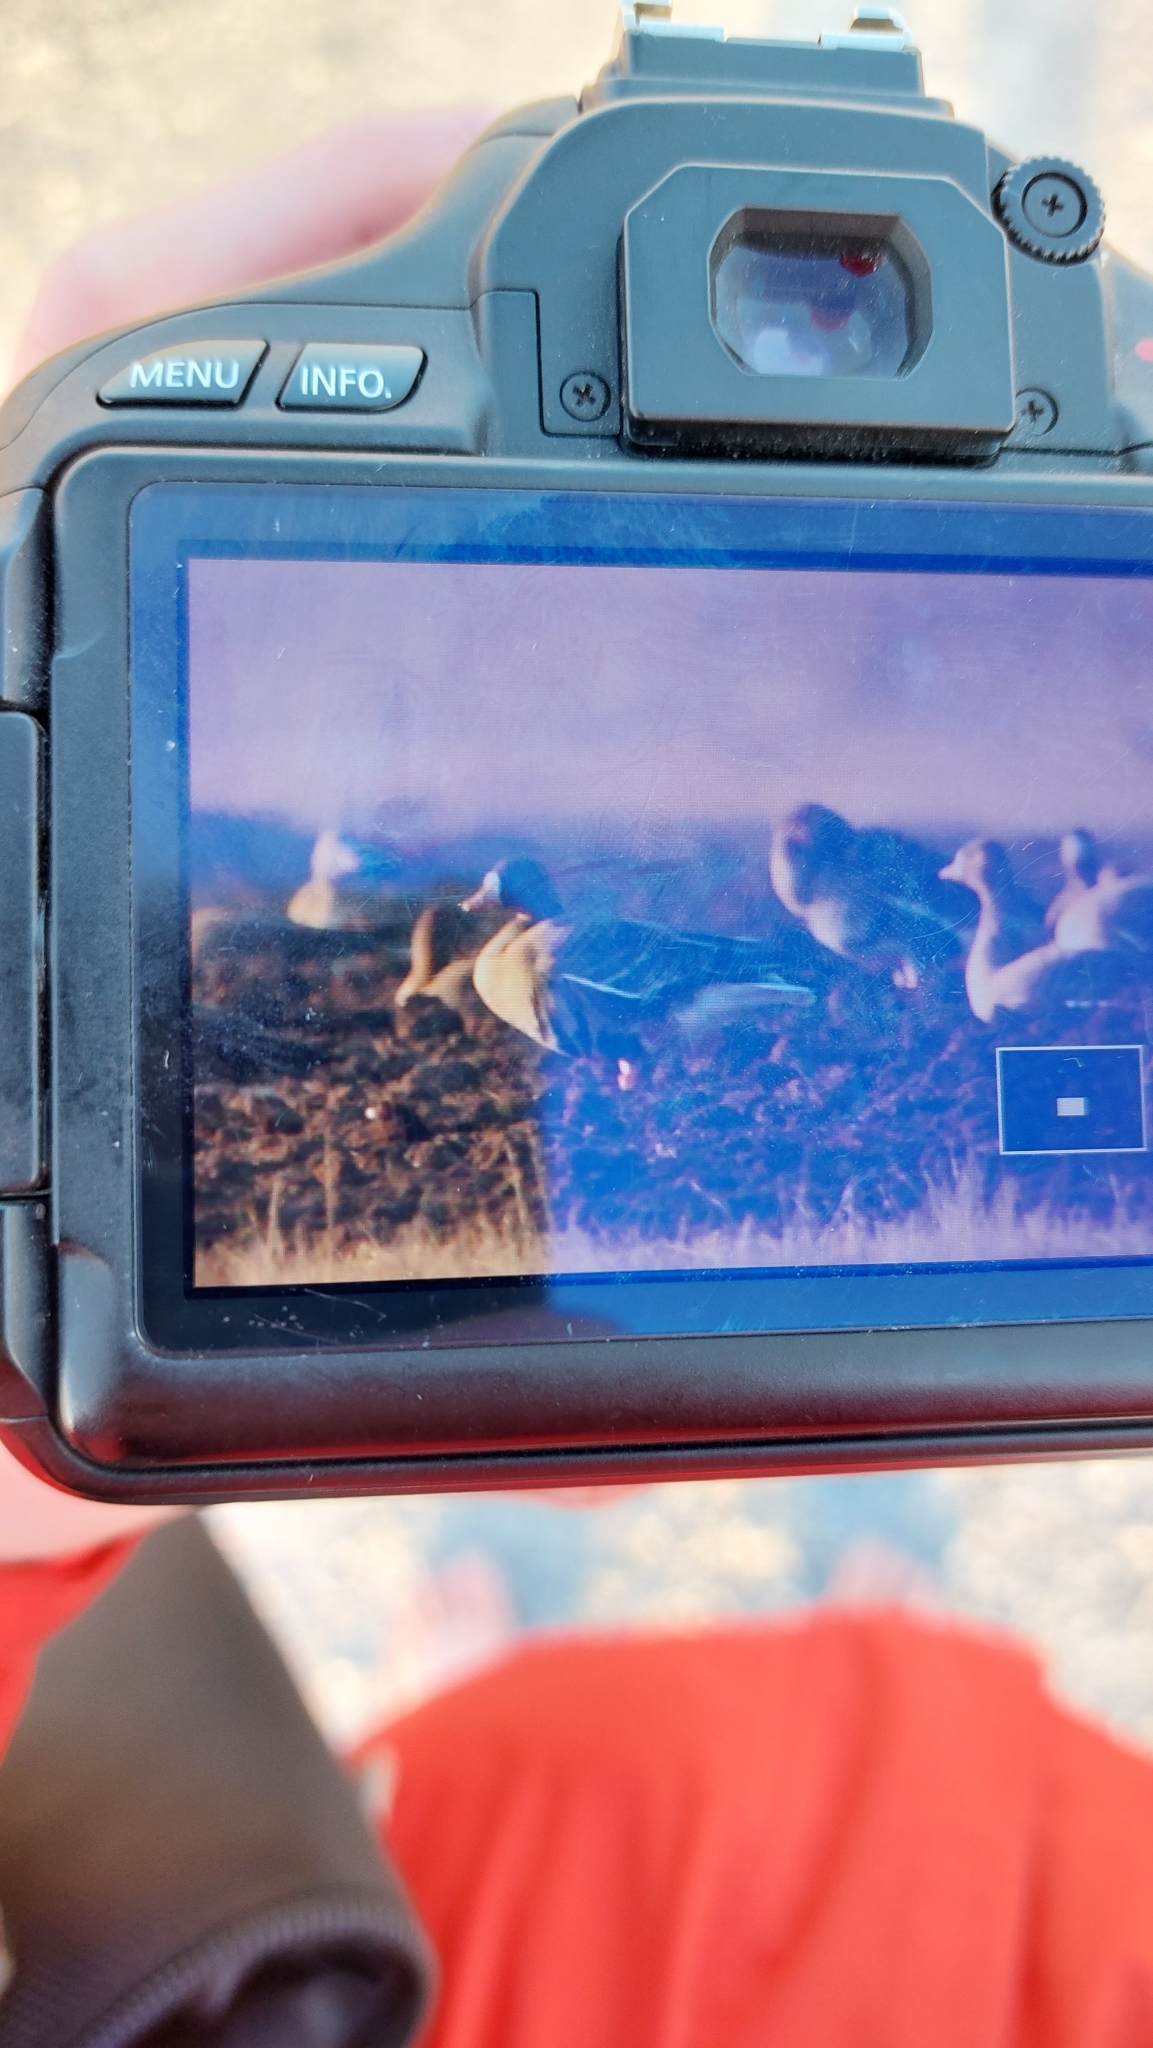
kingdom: Animalia
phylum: Chordata
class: Aves
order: Anseriformes
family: Anatidae
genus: Anser
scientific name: Anser albifrons
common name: Greater white-fronted goose
